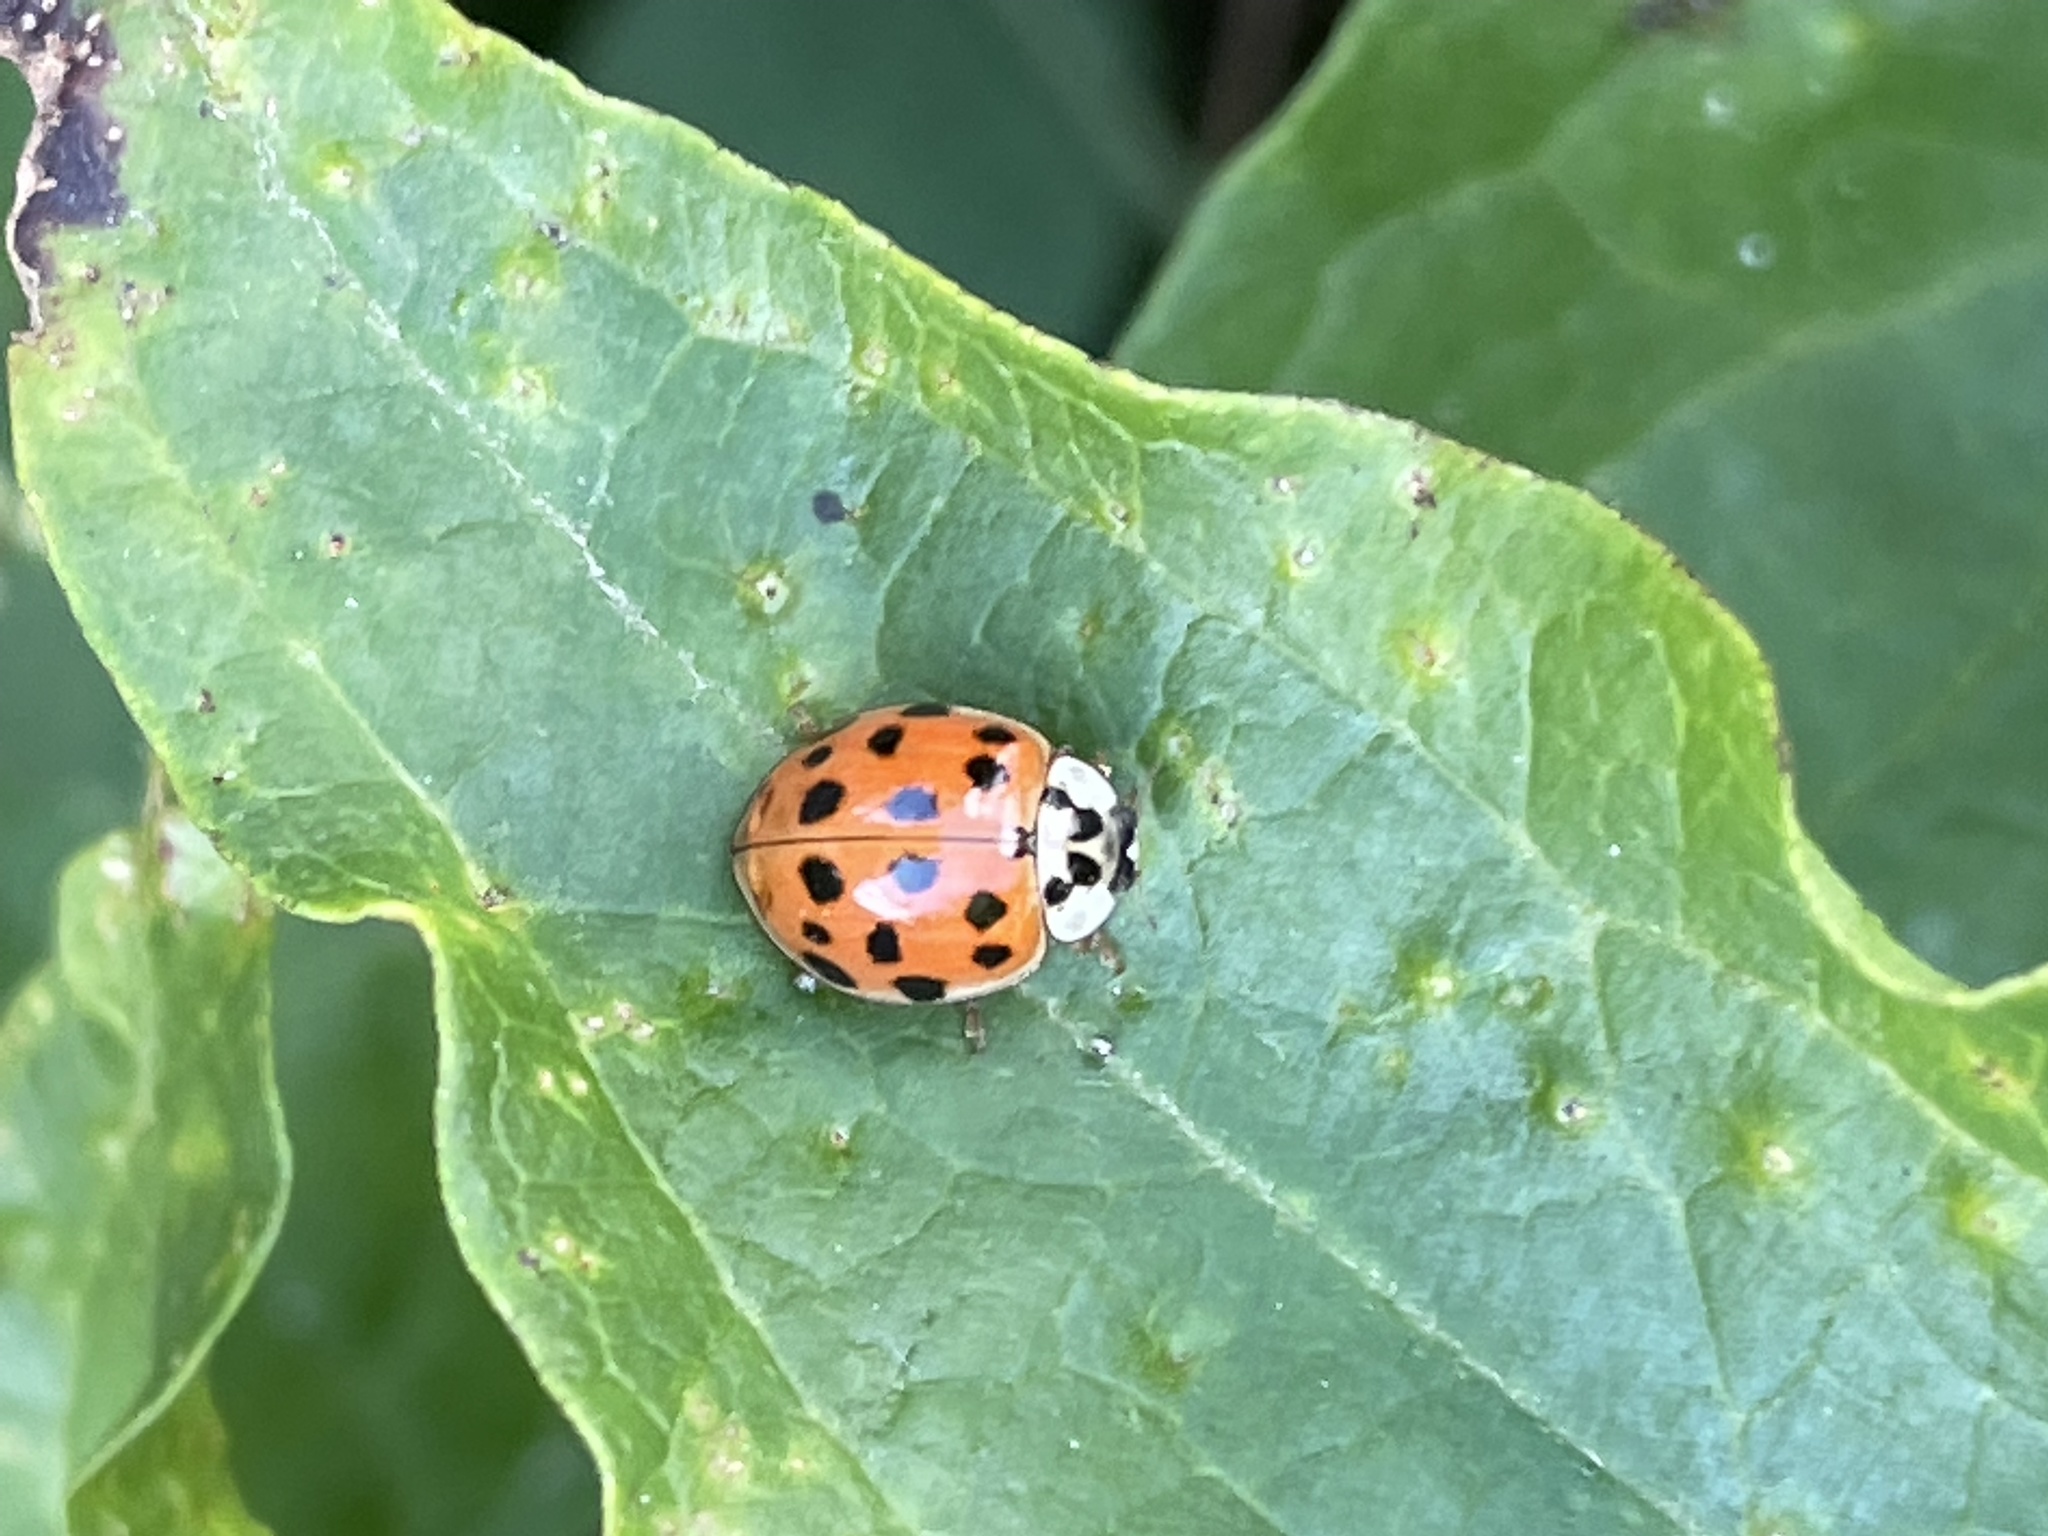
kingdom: Animalia
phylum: Arthropoda
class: Insecta
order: Coleoptera
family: Coccinellidae
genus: Harmonia
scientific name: Harmonia axyridis
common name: Harlequin ladybird
